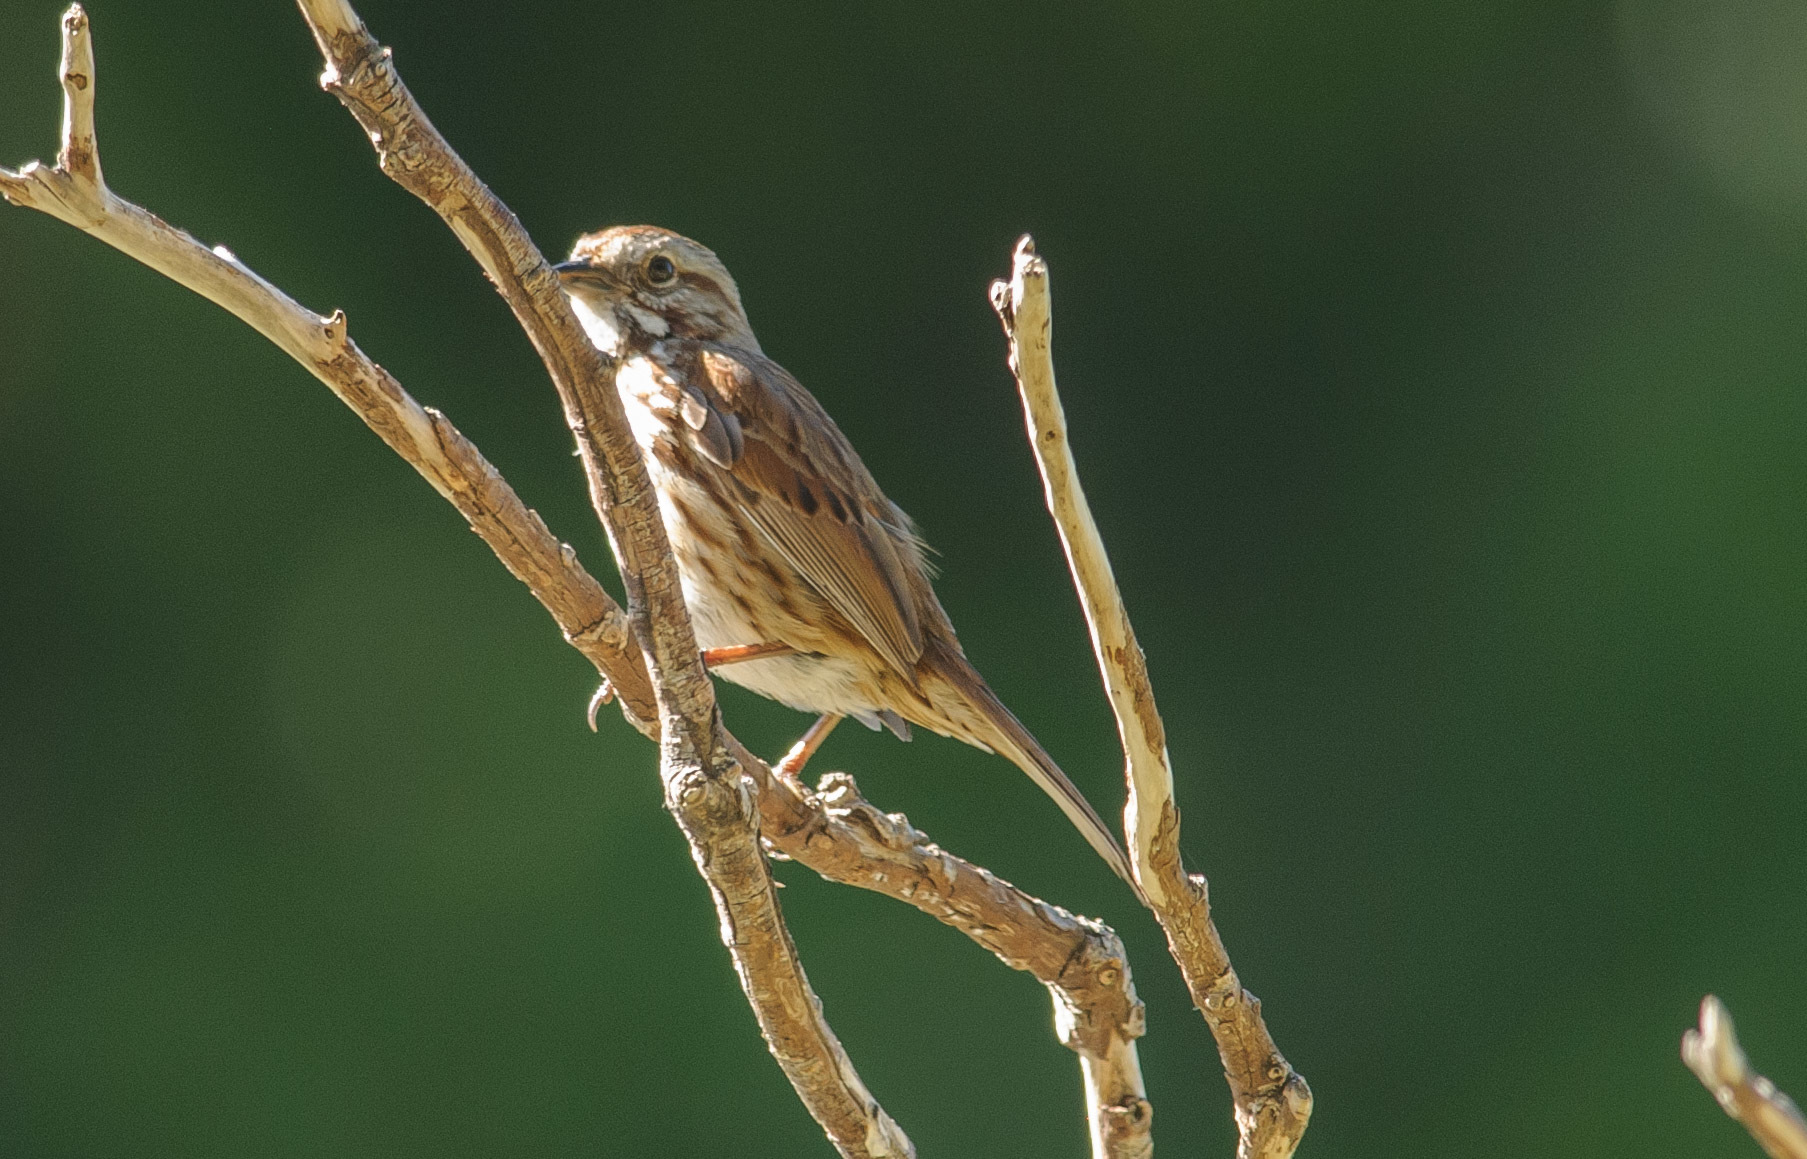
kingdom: Animalia
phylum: Chordata
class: Aves
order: Passeriformes
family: Passerellidae
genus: Melospiza
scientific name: Melospiza melodia
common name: Song sparrow
